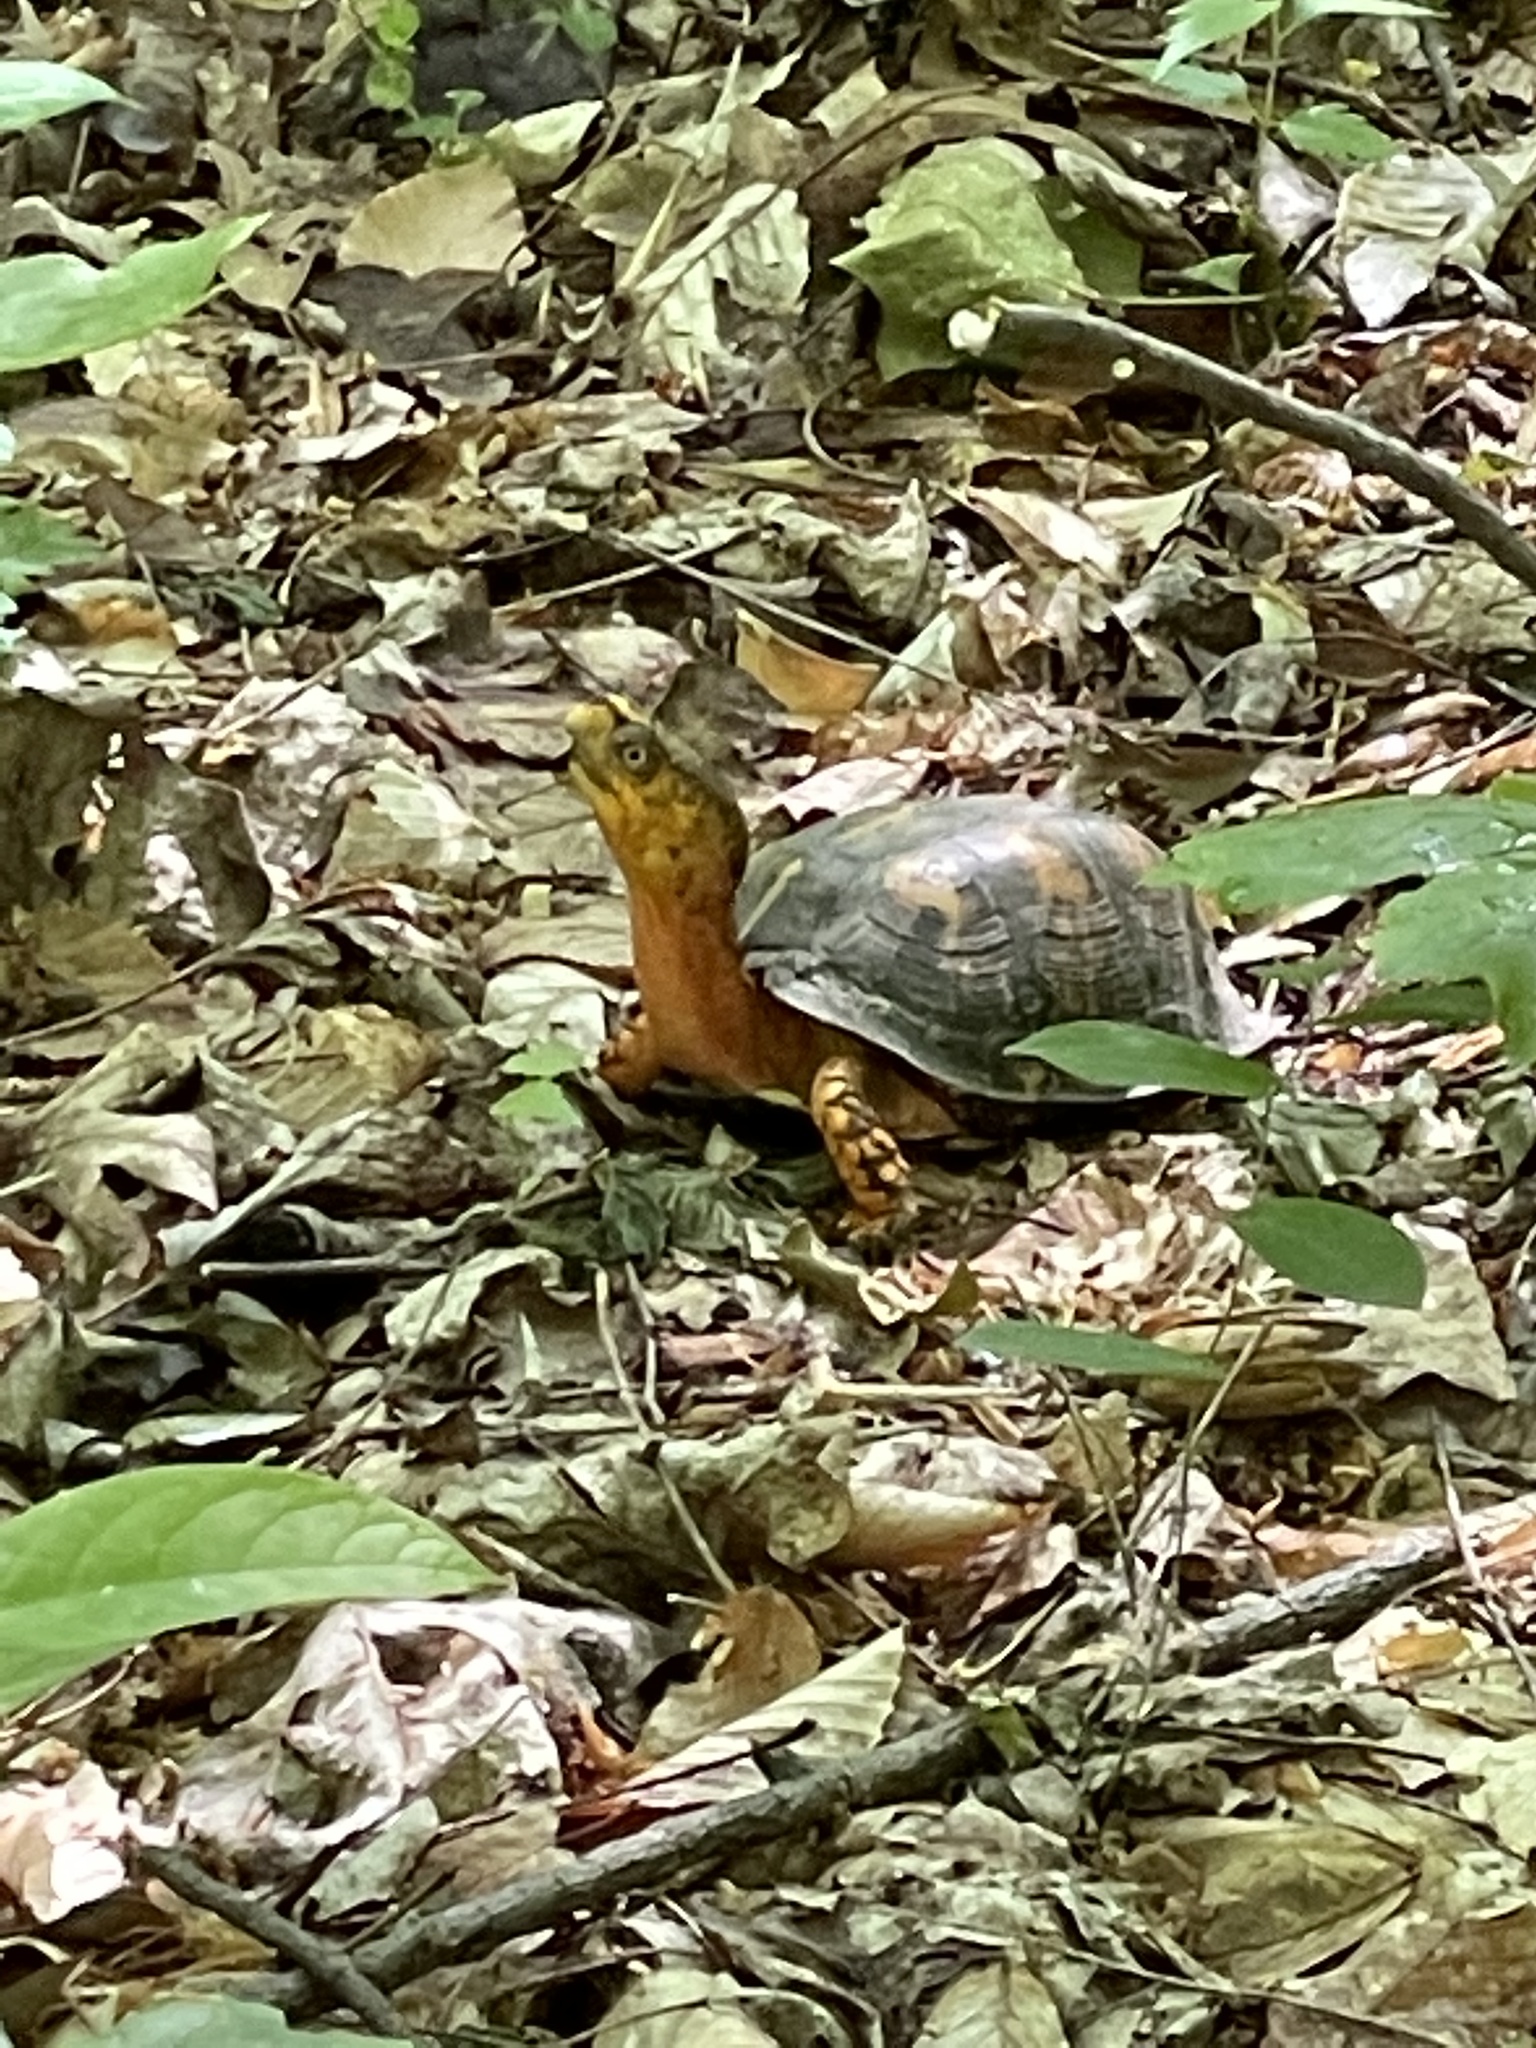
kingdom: Animalia
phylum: Chordata
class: Testudines
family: Emydidae
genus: Terrapene
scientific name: Terrapene carolina
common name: Common box turtle
